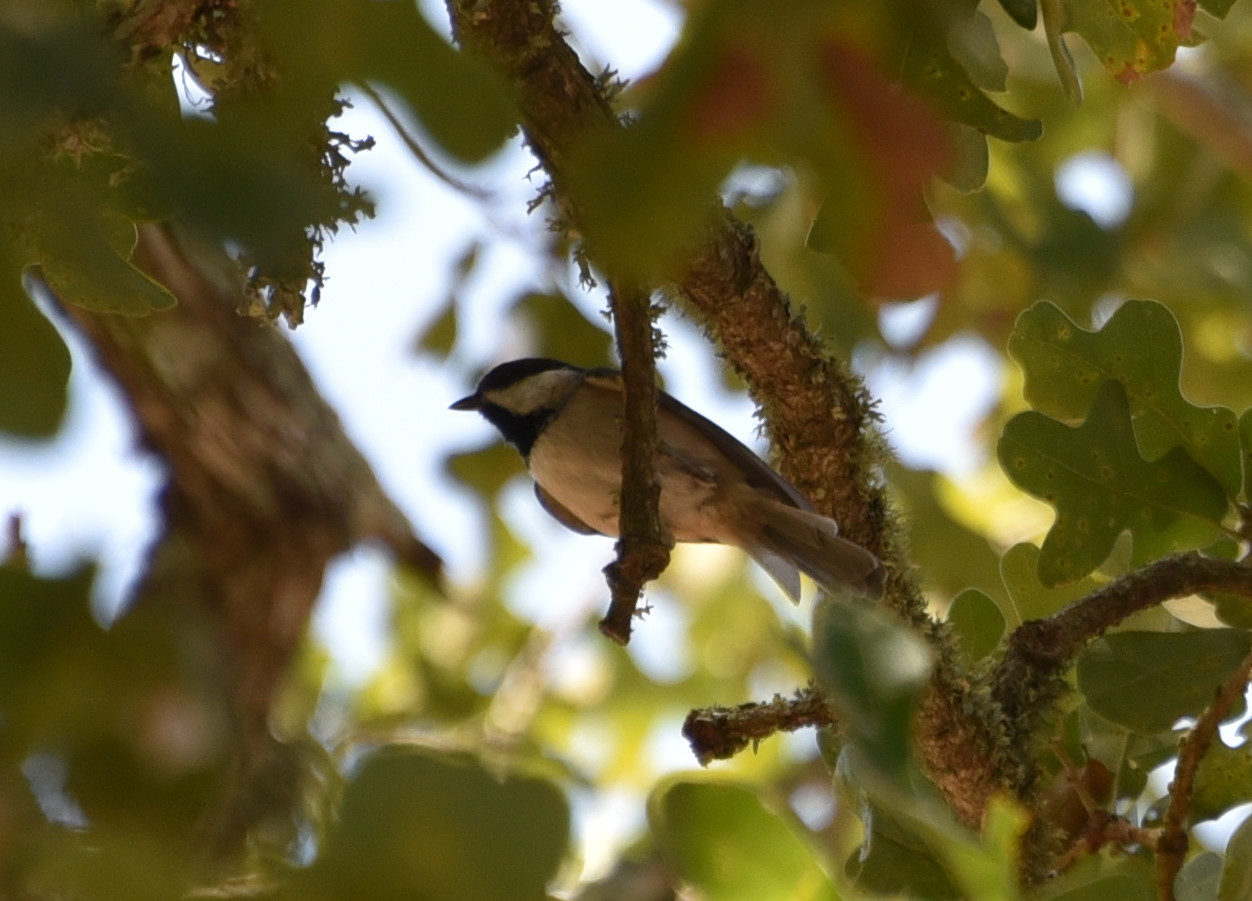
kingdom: Animalia
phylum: Chordata
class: Aves
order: Passeriformes
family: Paridae
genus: Poecile
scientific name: Poecile carolinensis
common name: Carolina chickadee
